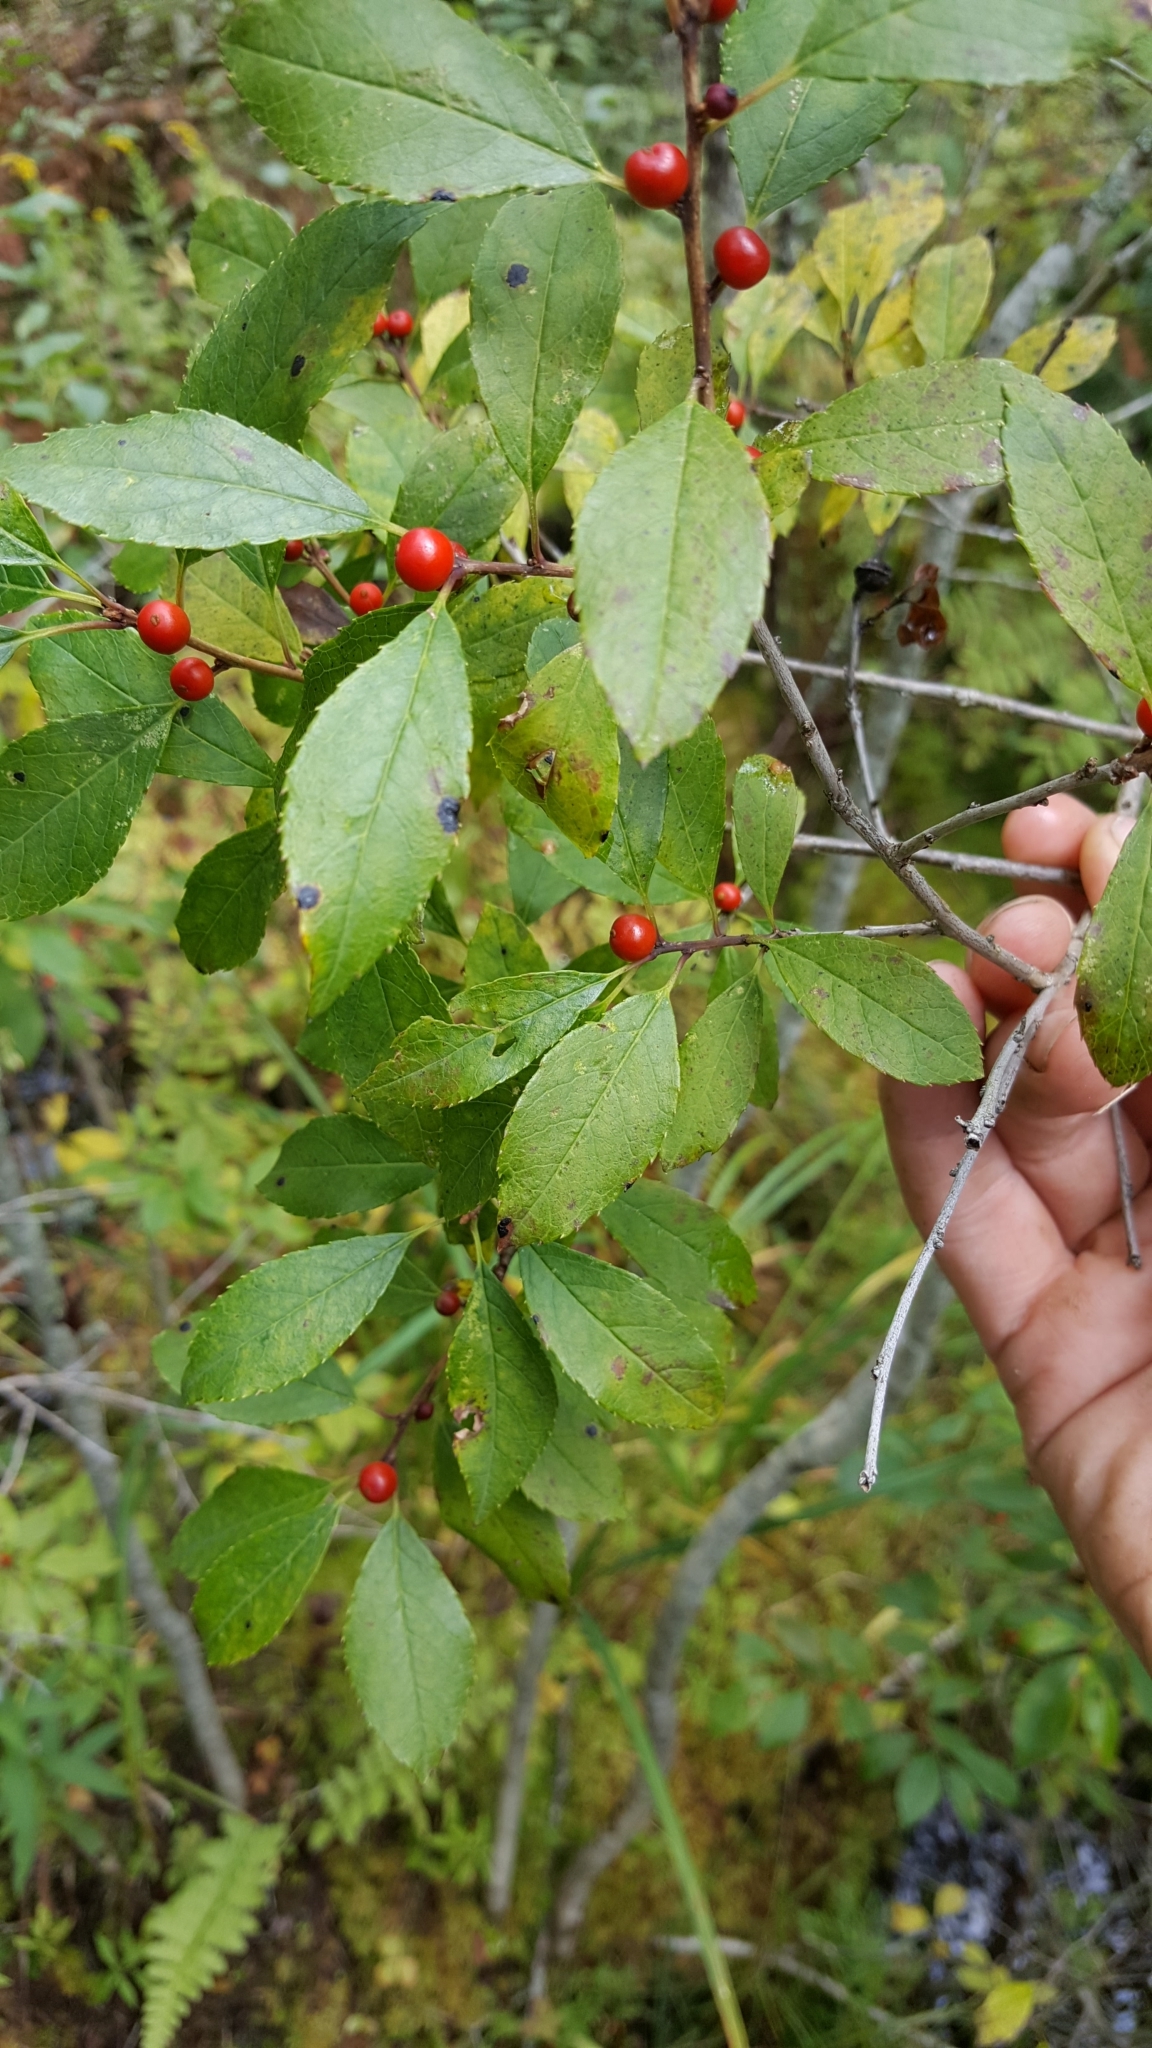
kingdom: Plantae
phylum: Tracheophyta
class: Magnoliopsida
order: Aquifoliales
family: Aquifoliaceae
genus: Ilex
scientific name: Ilex verticillata
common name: Virginia winterberry
